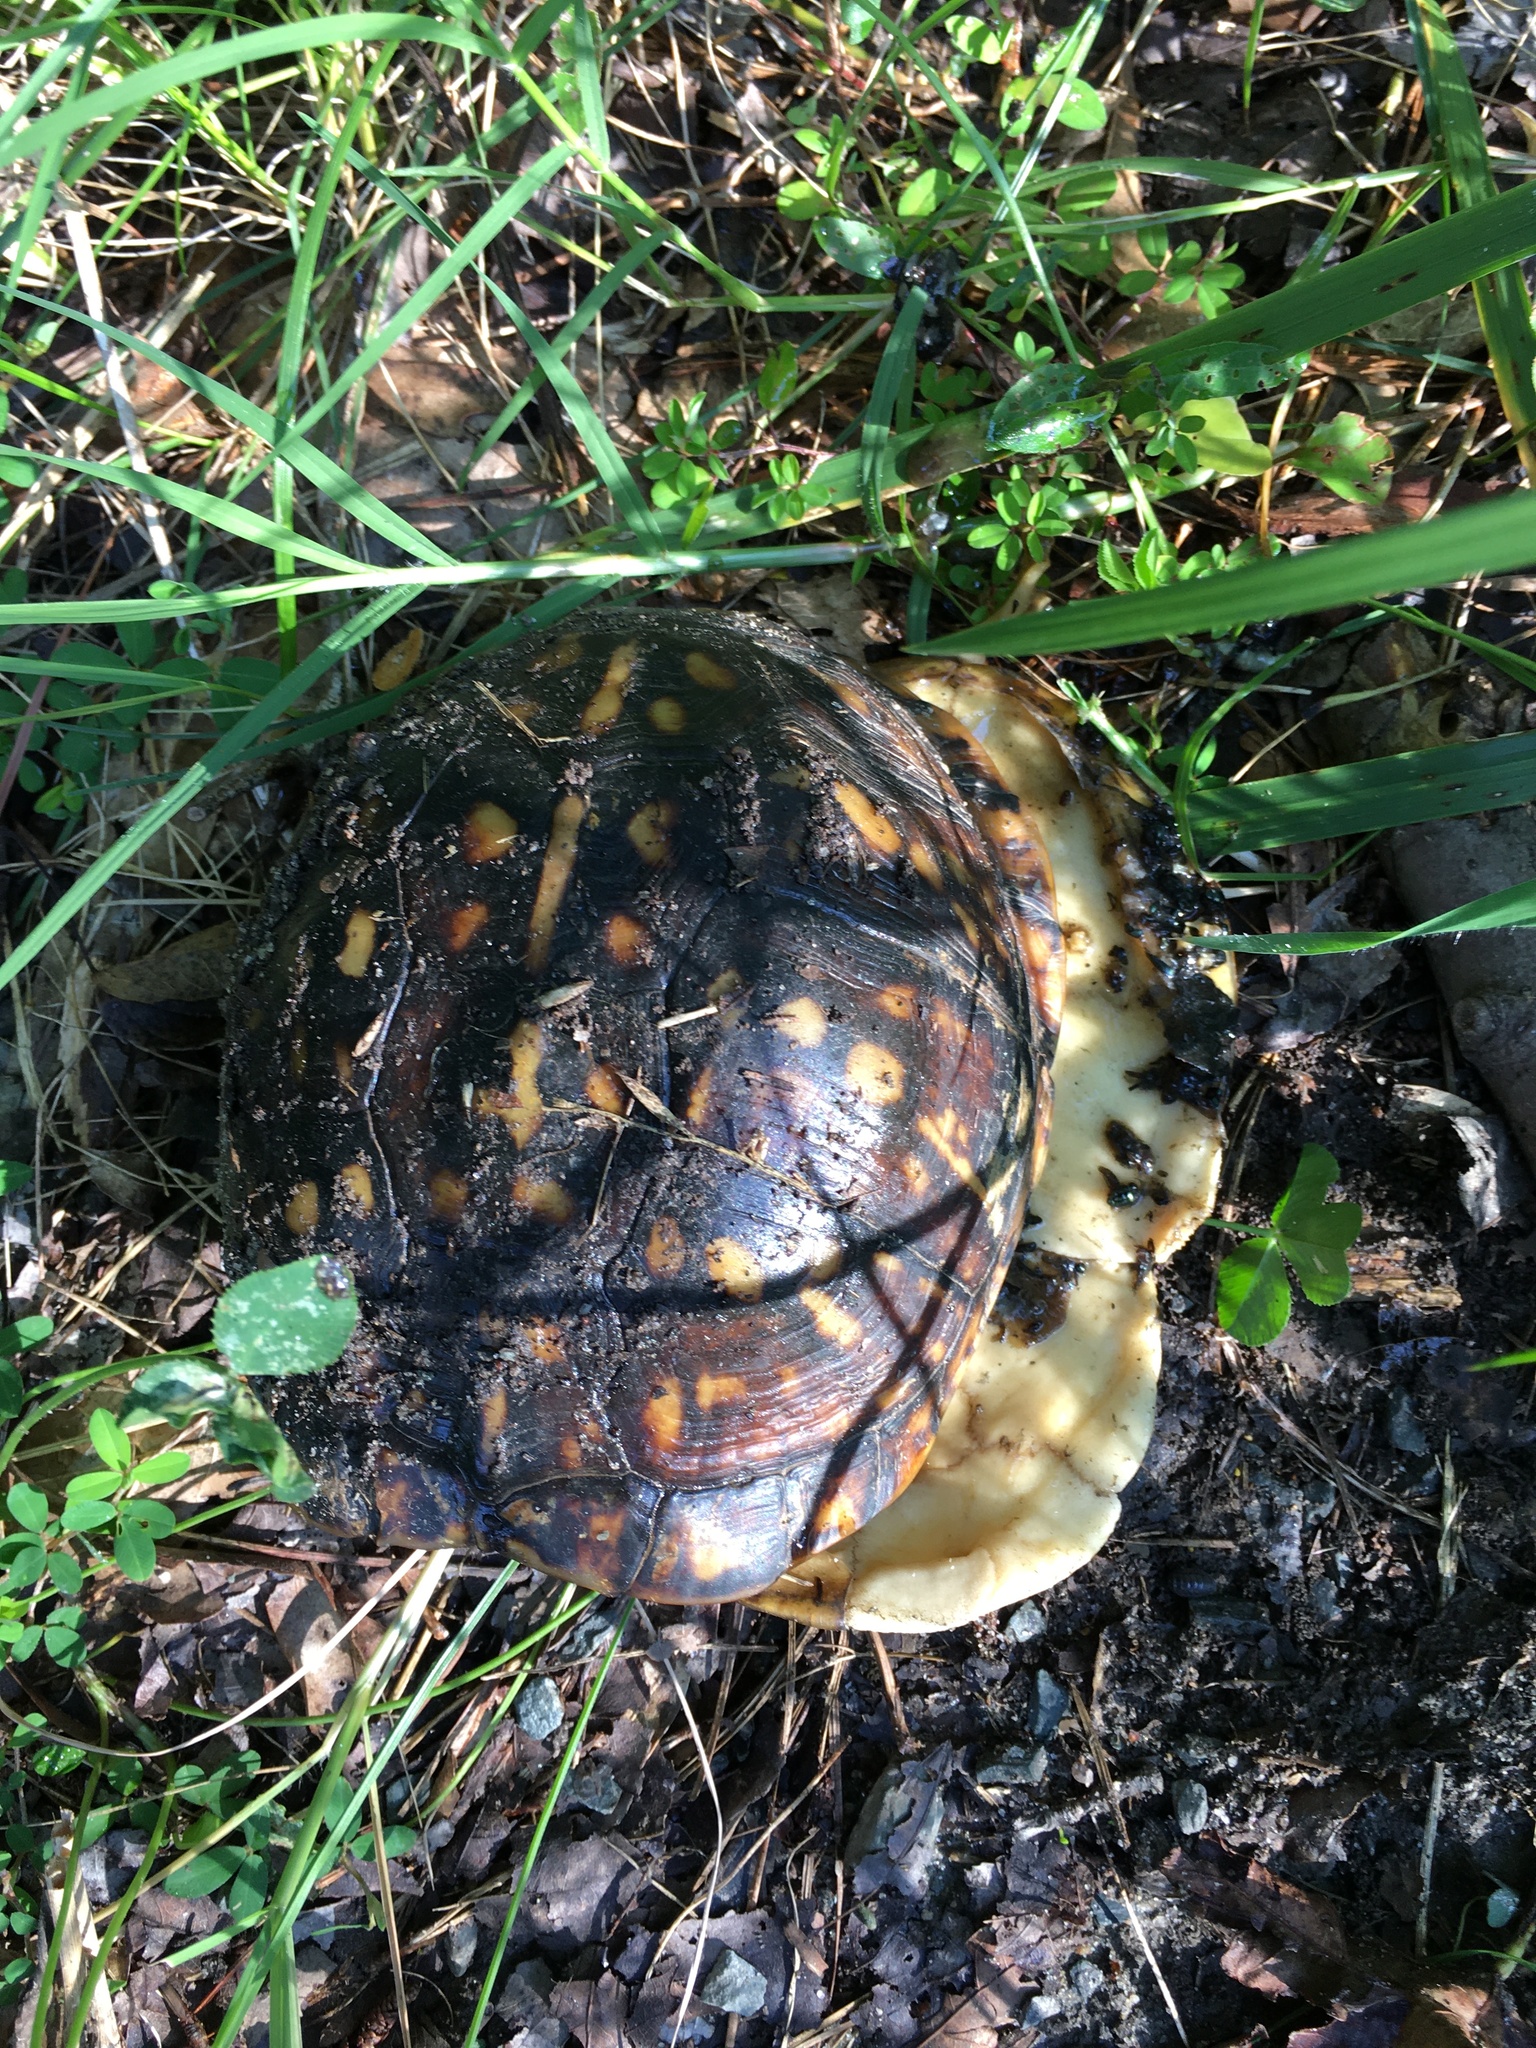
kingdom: Animalia
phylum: Chordata
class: Testudines
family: Emydidae
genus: Terrapene
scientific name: Terrapene carolina
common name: Common box turtle
